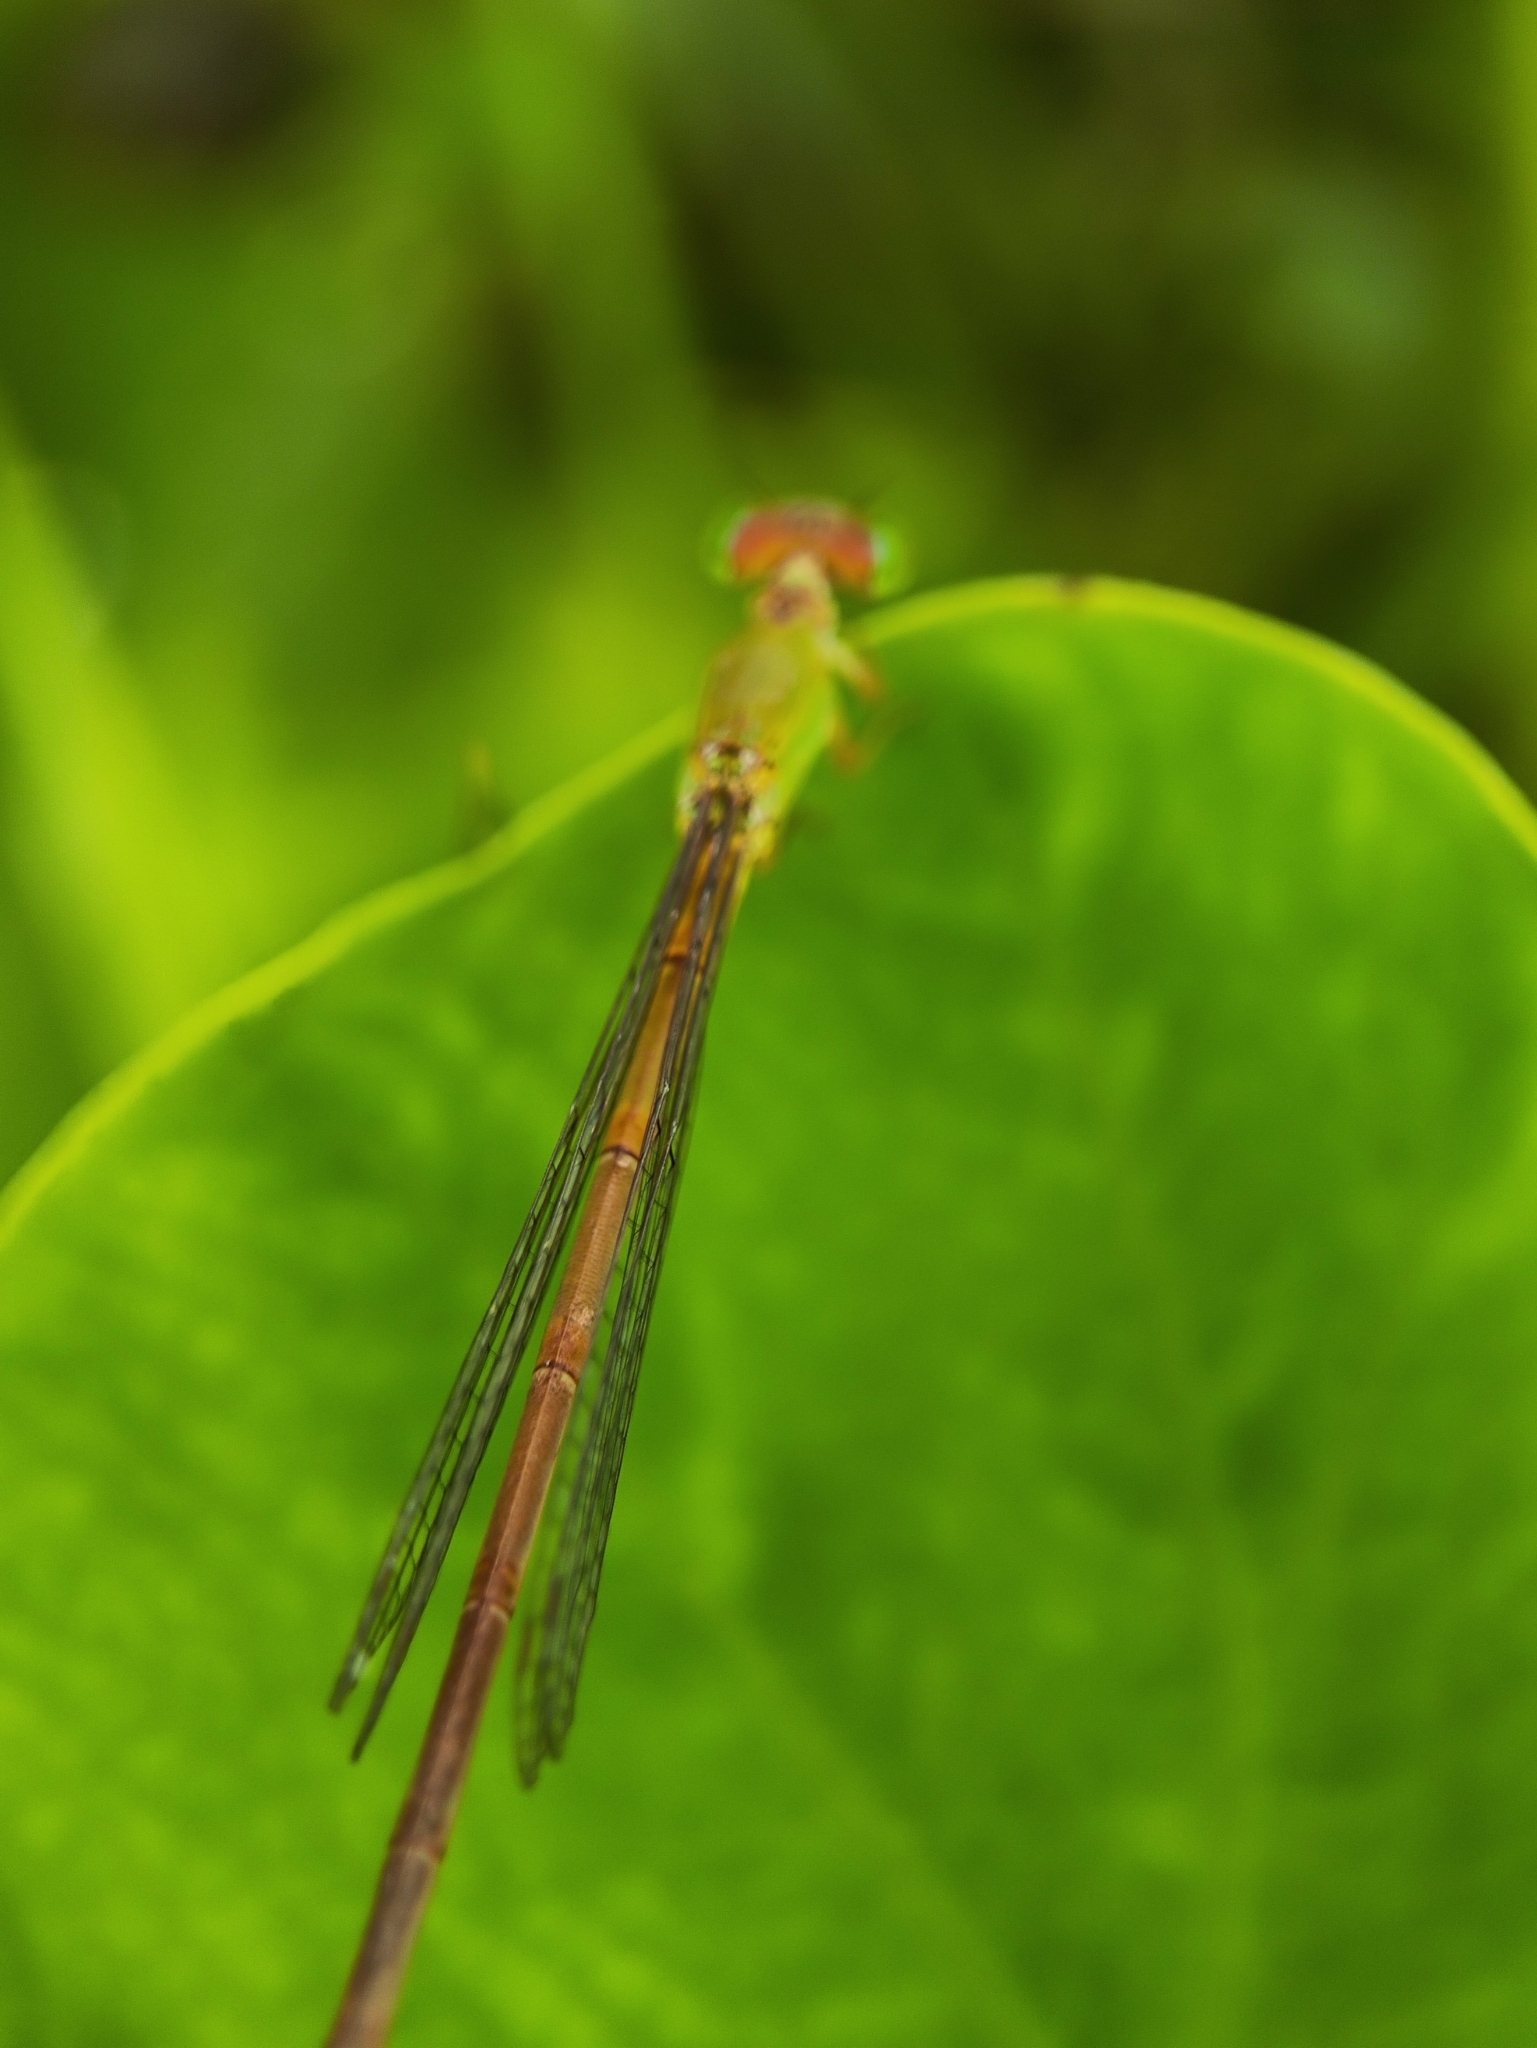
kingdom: Animalia
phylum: Arthropoda
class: Insecta
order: Odonata
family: Coenagrionidae
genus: Ceriagrion
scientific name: Ceriagrion coromandelianum
